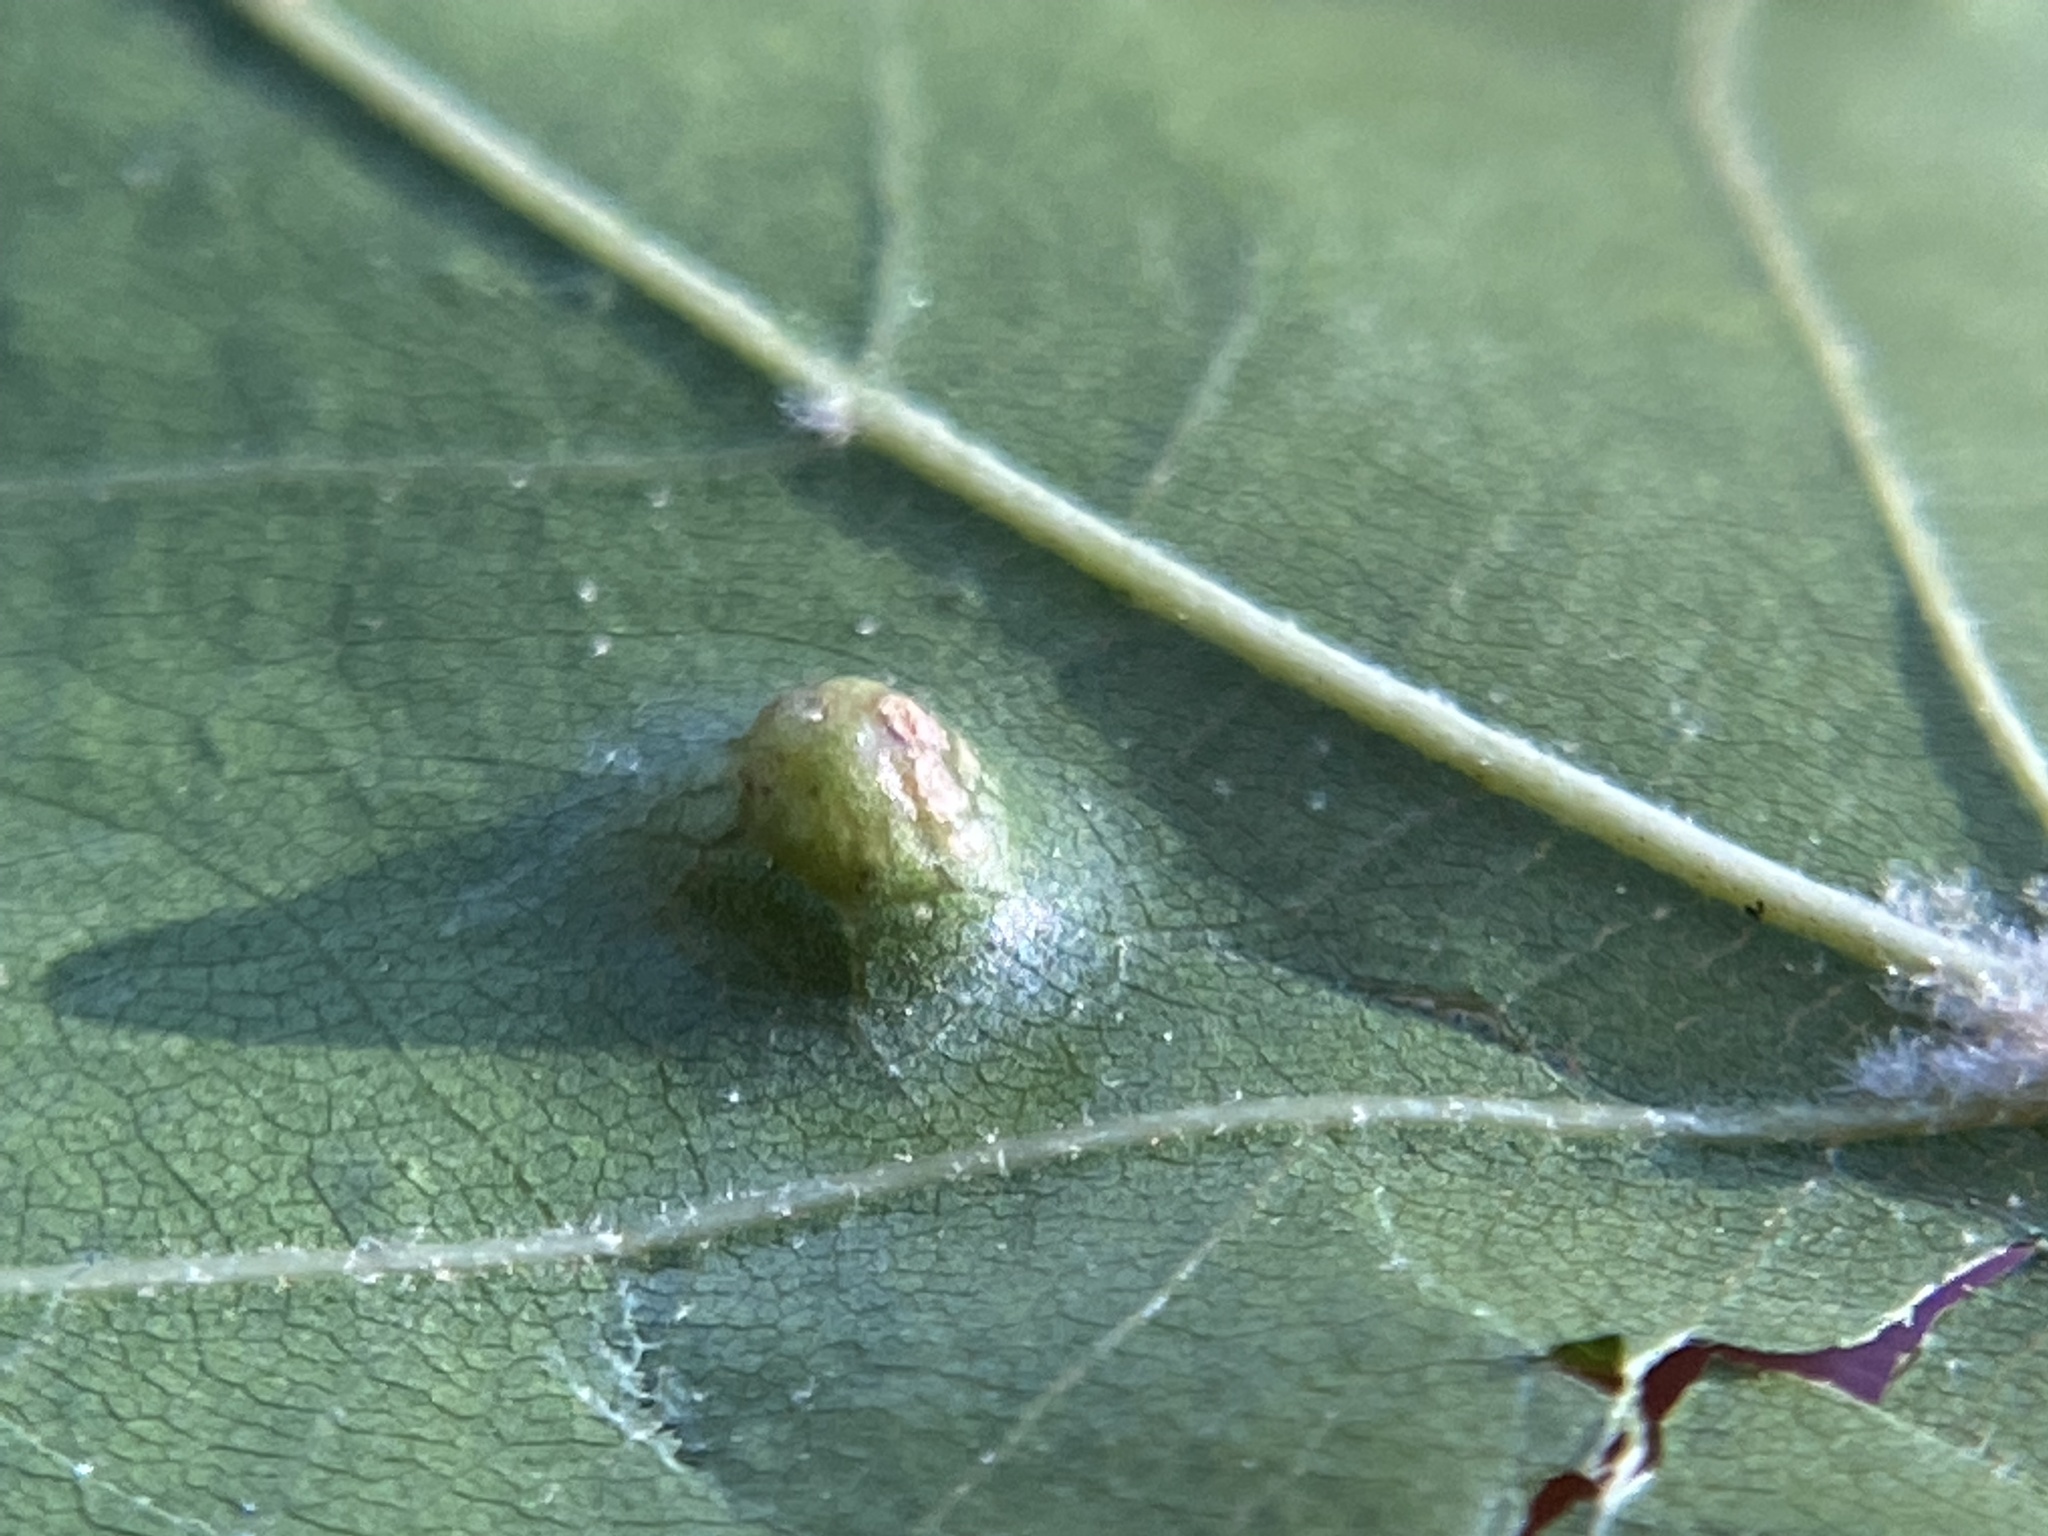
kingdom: Animalia
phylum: Arthropoda
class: Insecta
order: Diptera
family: Cecidomyiidae
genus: Polystepha
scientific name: Polystepha pilulae
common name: Oak leaf gall midge
